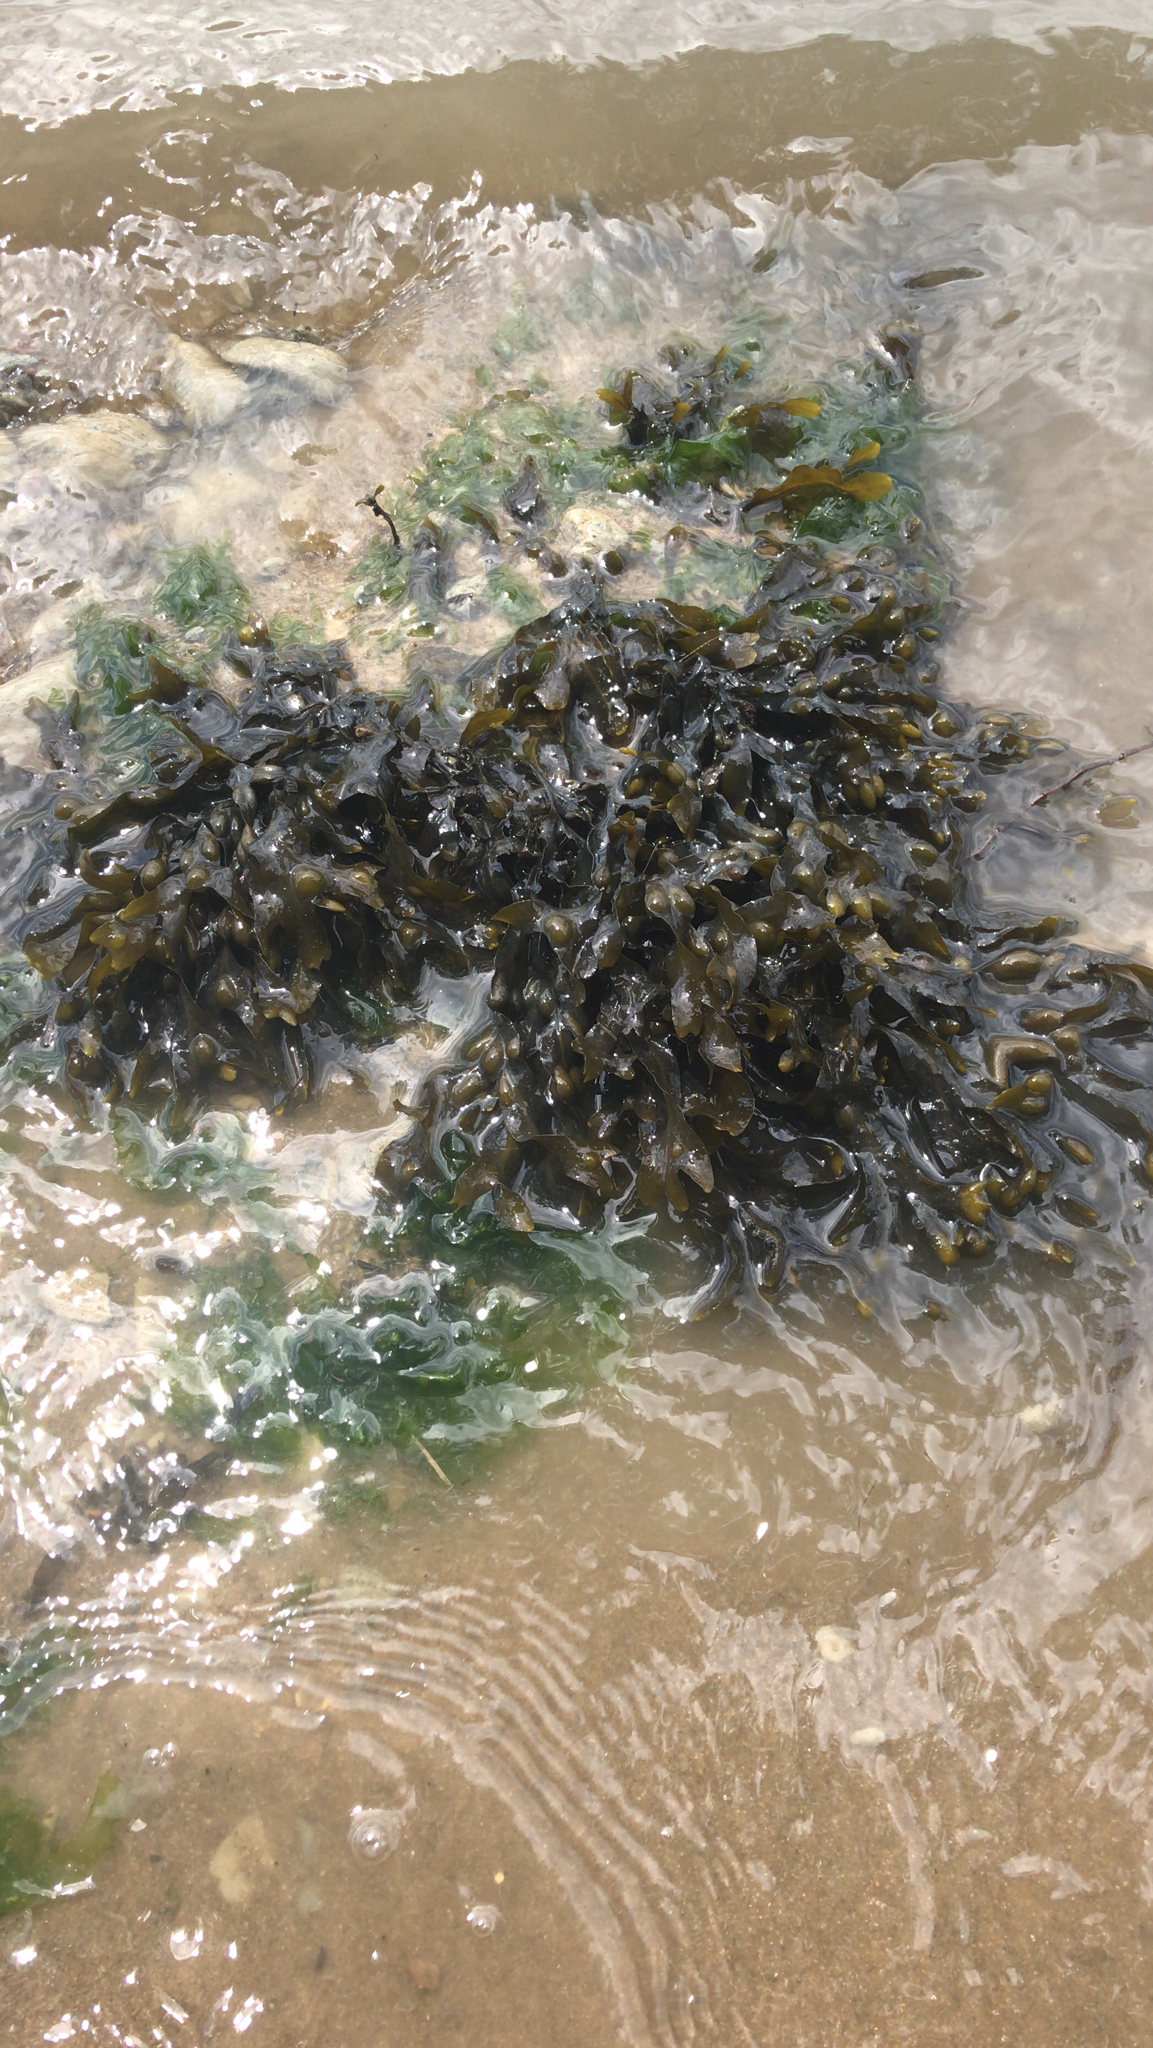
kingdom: Chromista
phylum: Ochrophyta
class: Phaeophyceae
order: Fucales
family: Fucaceae
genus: Fucus
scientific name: Fucus vesiculosus
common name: Bladder wrack
